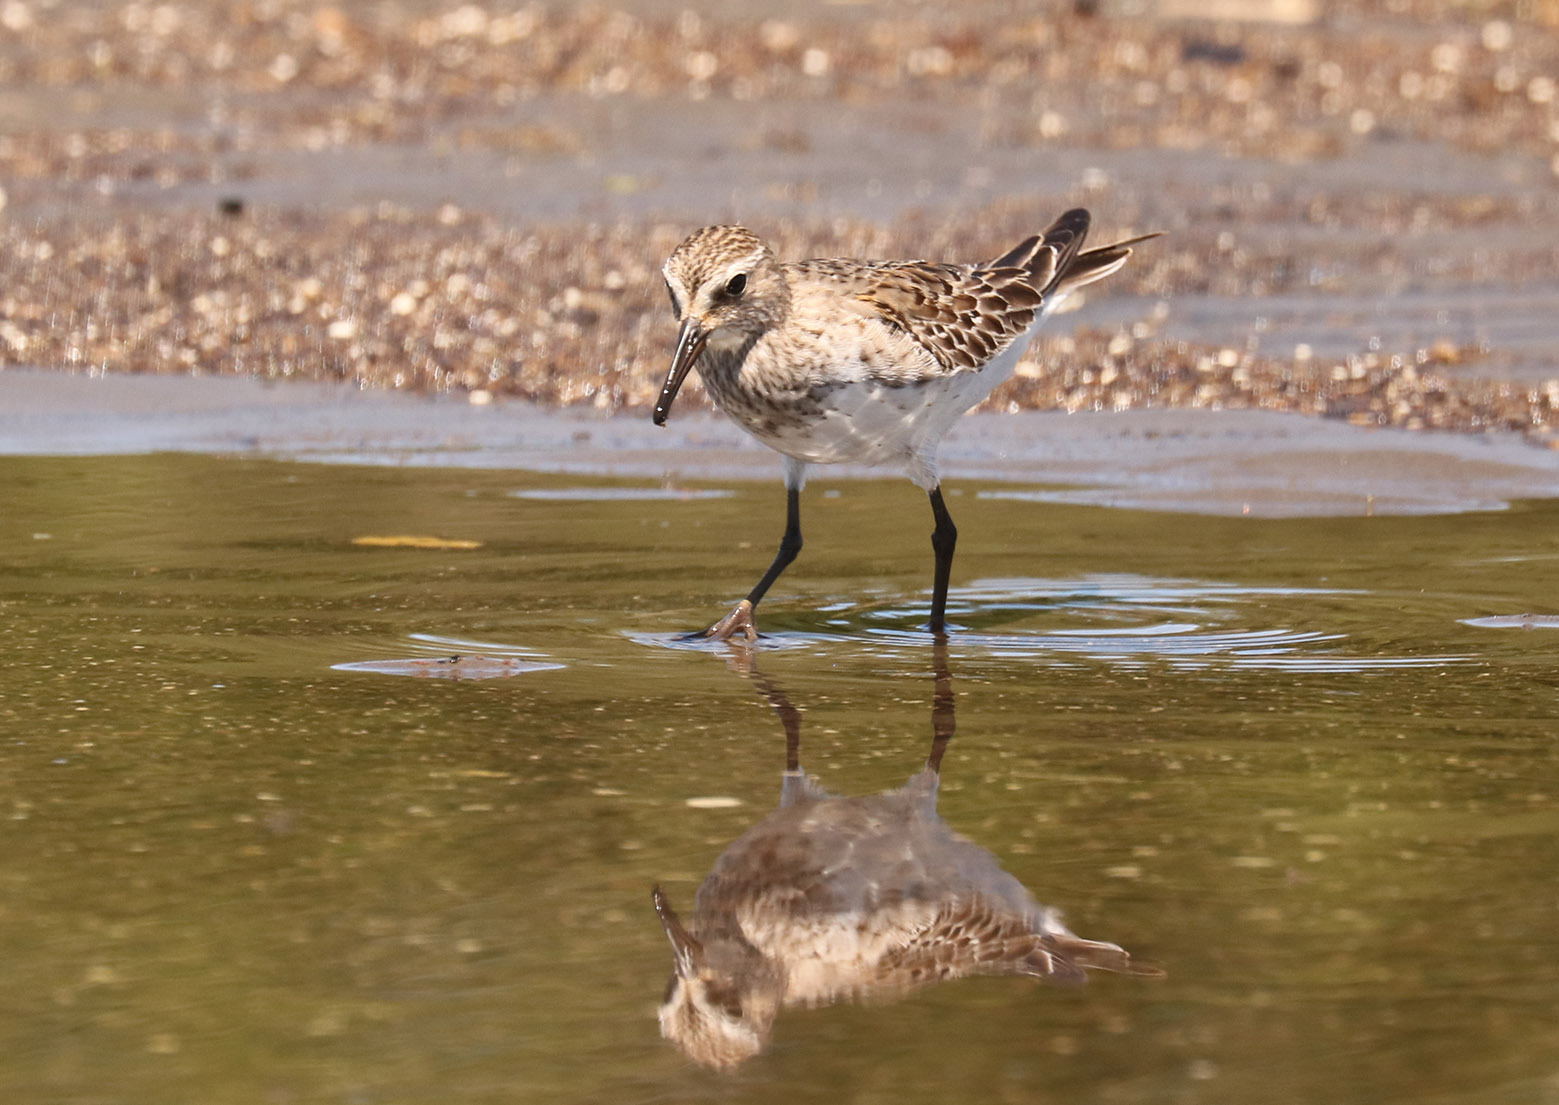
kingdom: Animalia
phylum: Chordata
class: Aves
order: Charadriiformes
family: Scolopacidae
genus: Calidris
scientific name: Calidris fuscicollis
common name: White-rumped sandpiper
